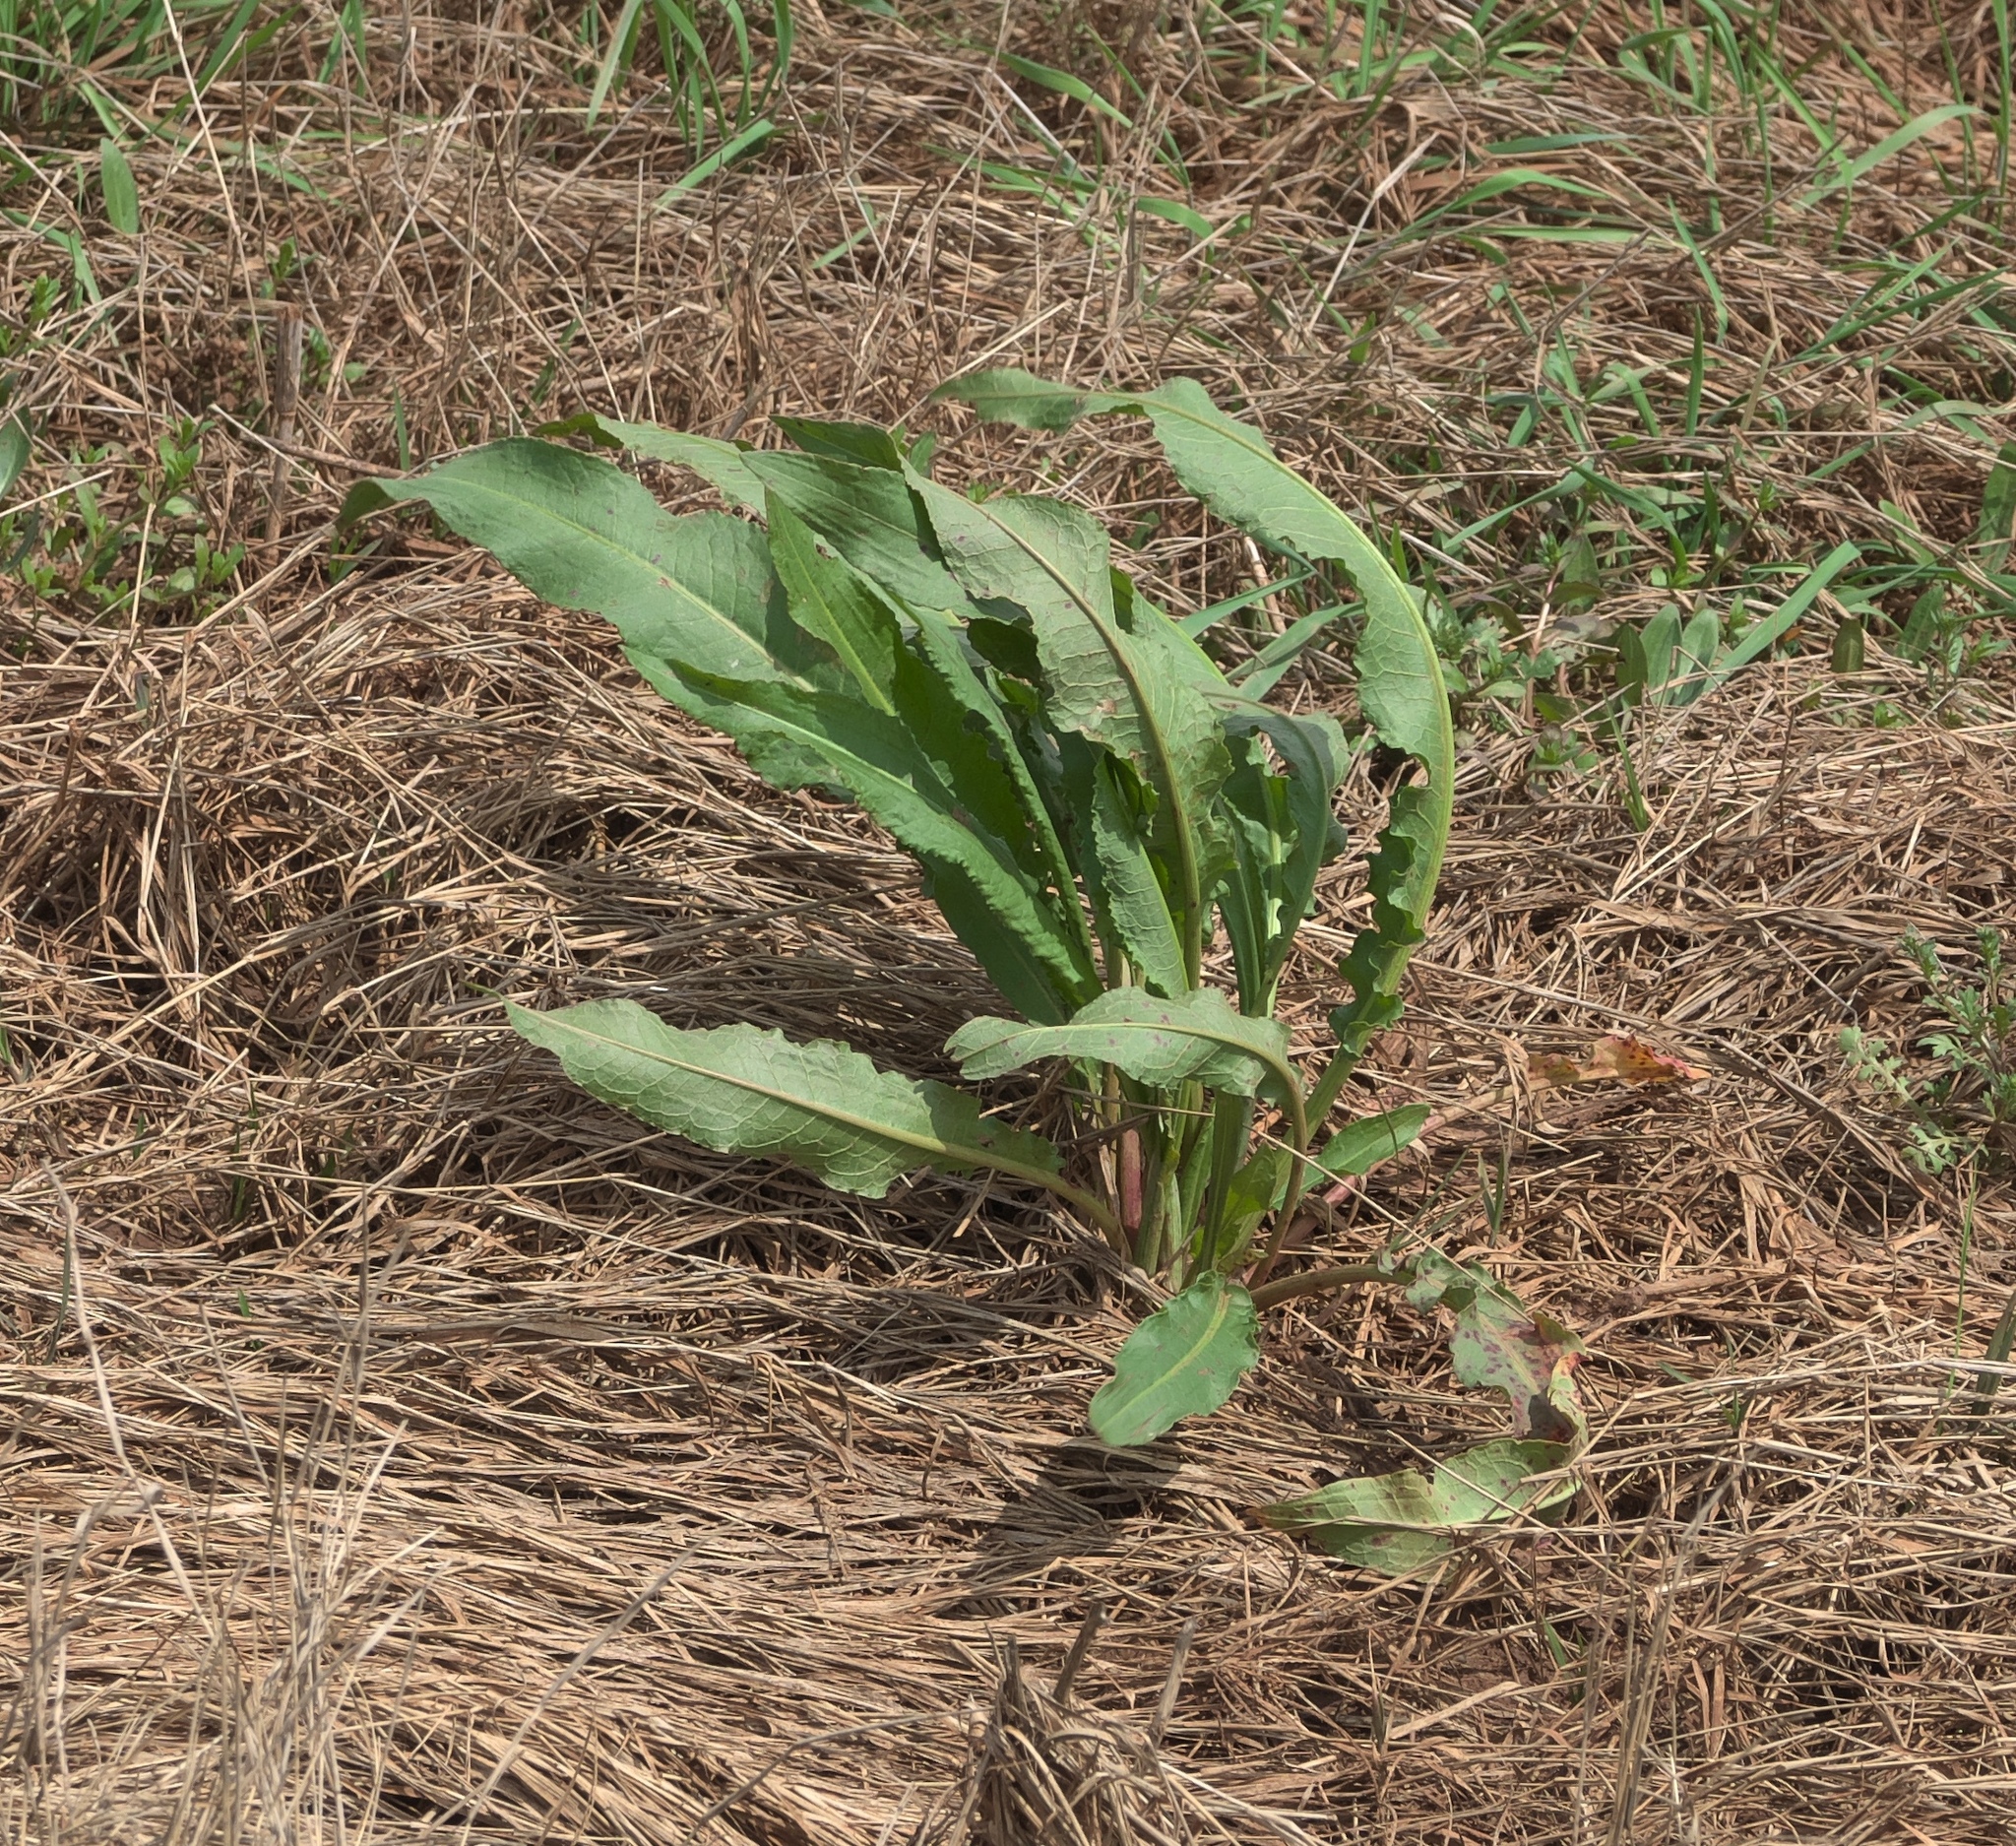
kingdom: Plantae
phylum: Tracheophyta
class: Magnoliopsida
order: Caryophyllales
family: Polygonaceae
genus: Rumex
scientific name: Rumex crispus
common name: Curled dock
